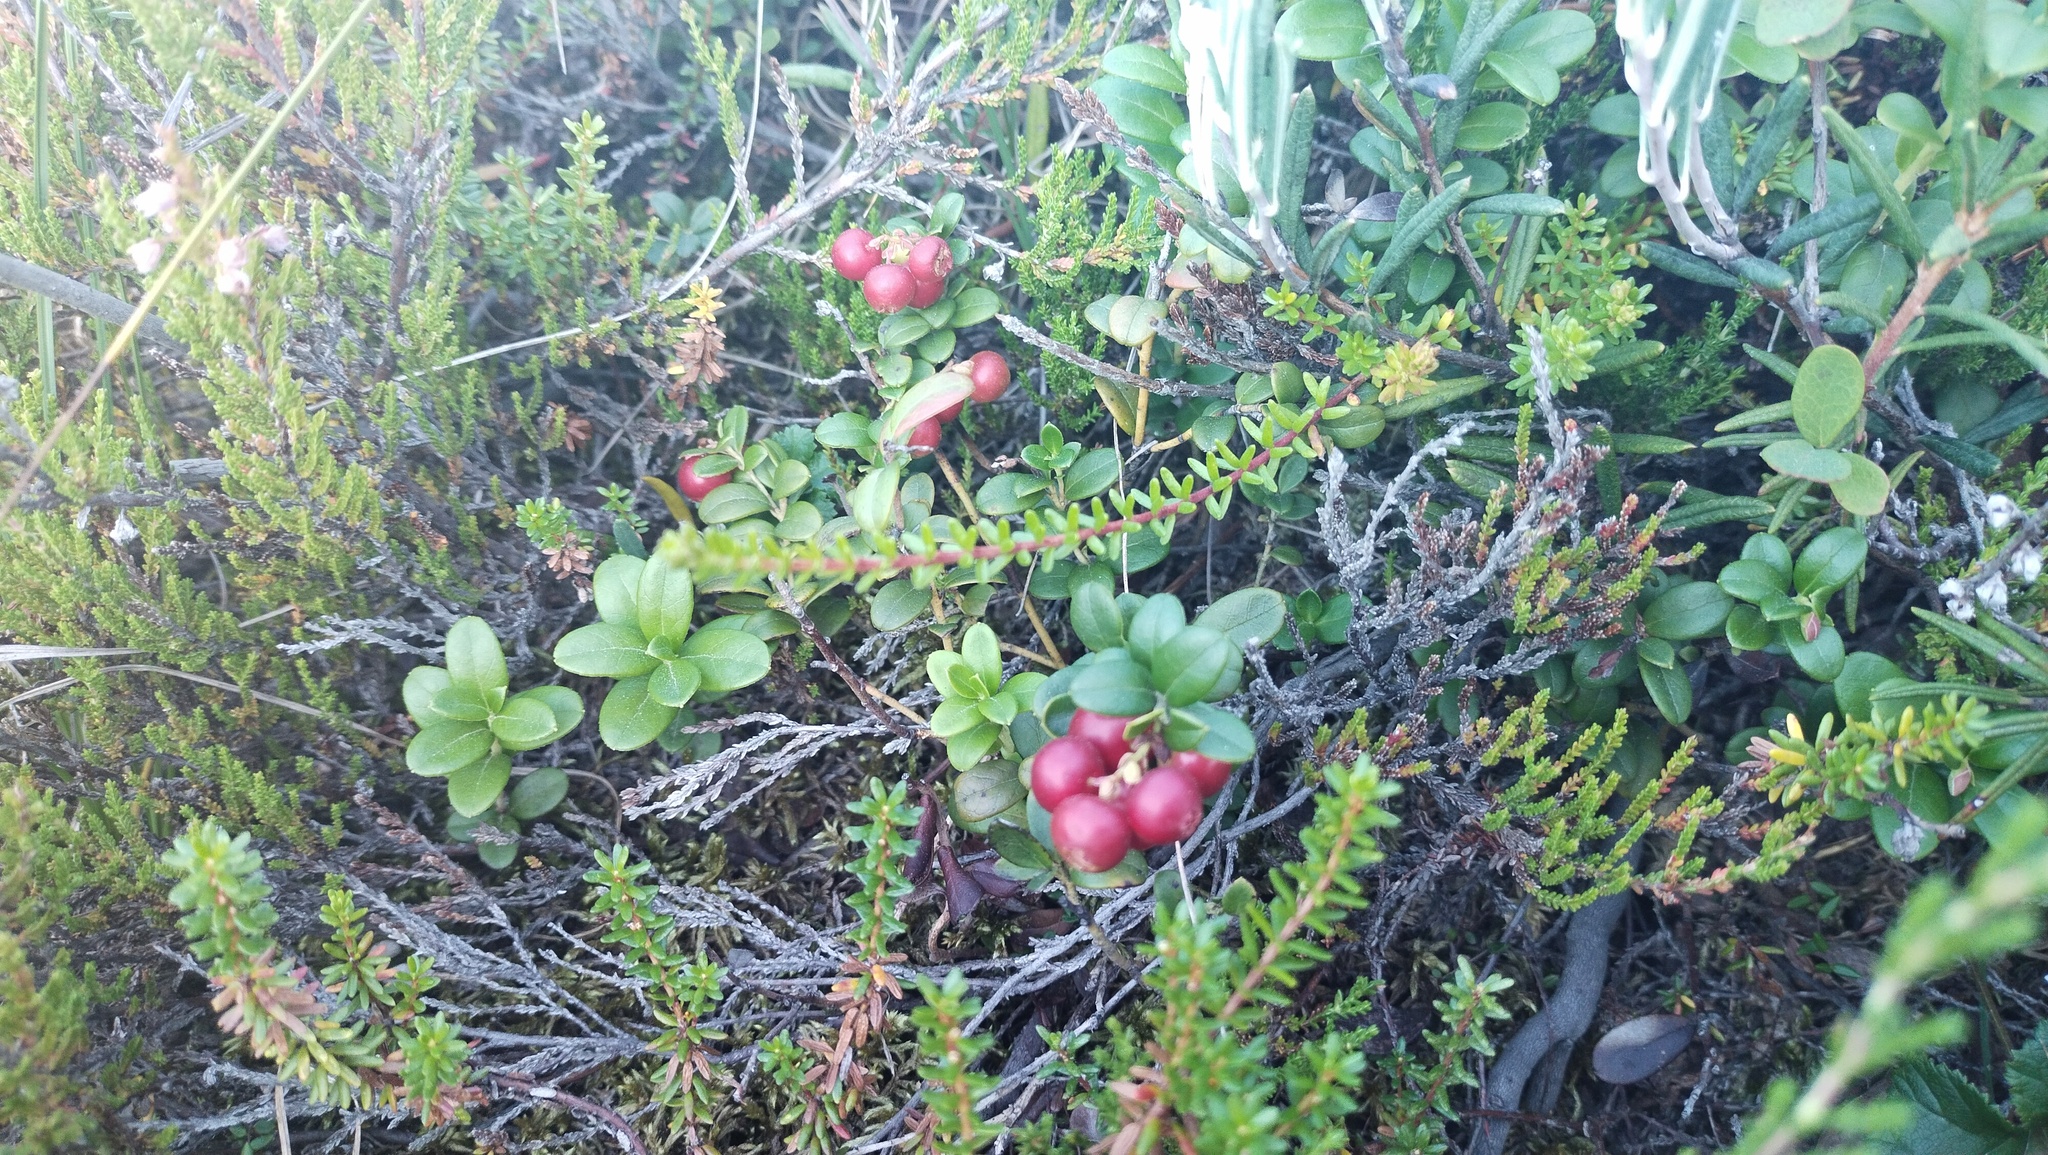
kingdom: Plantae
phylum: Tracheophyta
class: Magnoliopsida
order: Ericales
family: Ericaceae
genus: Vaccinium
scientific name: Vaccinium vitis-idaea
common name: Cowberry
